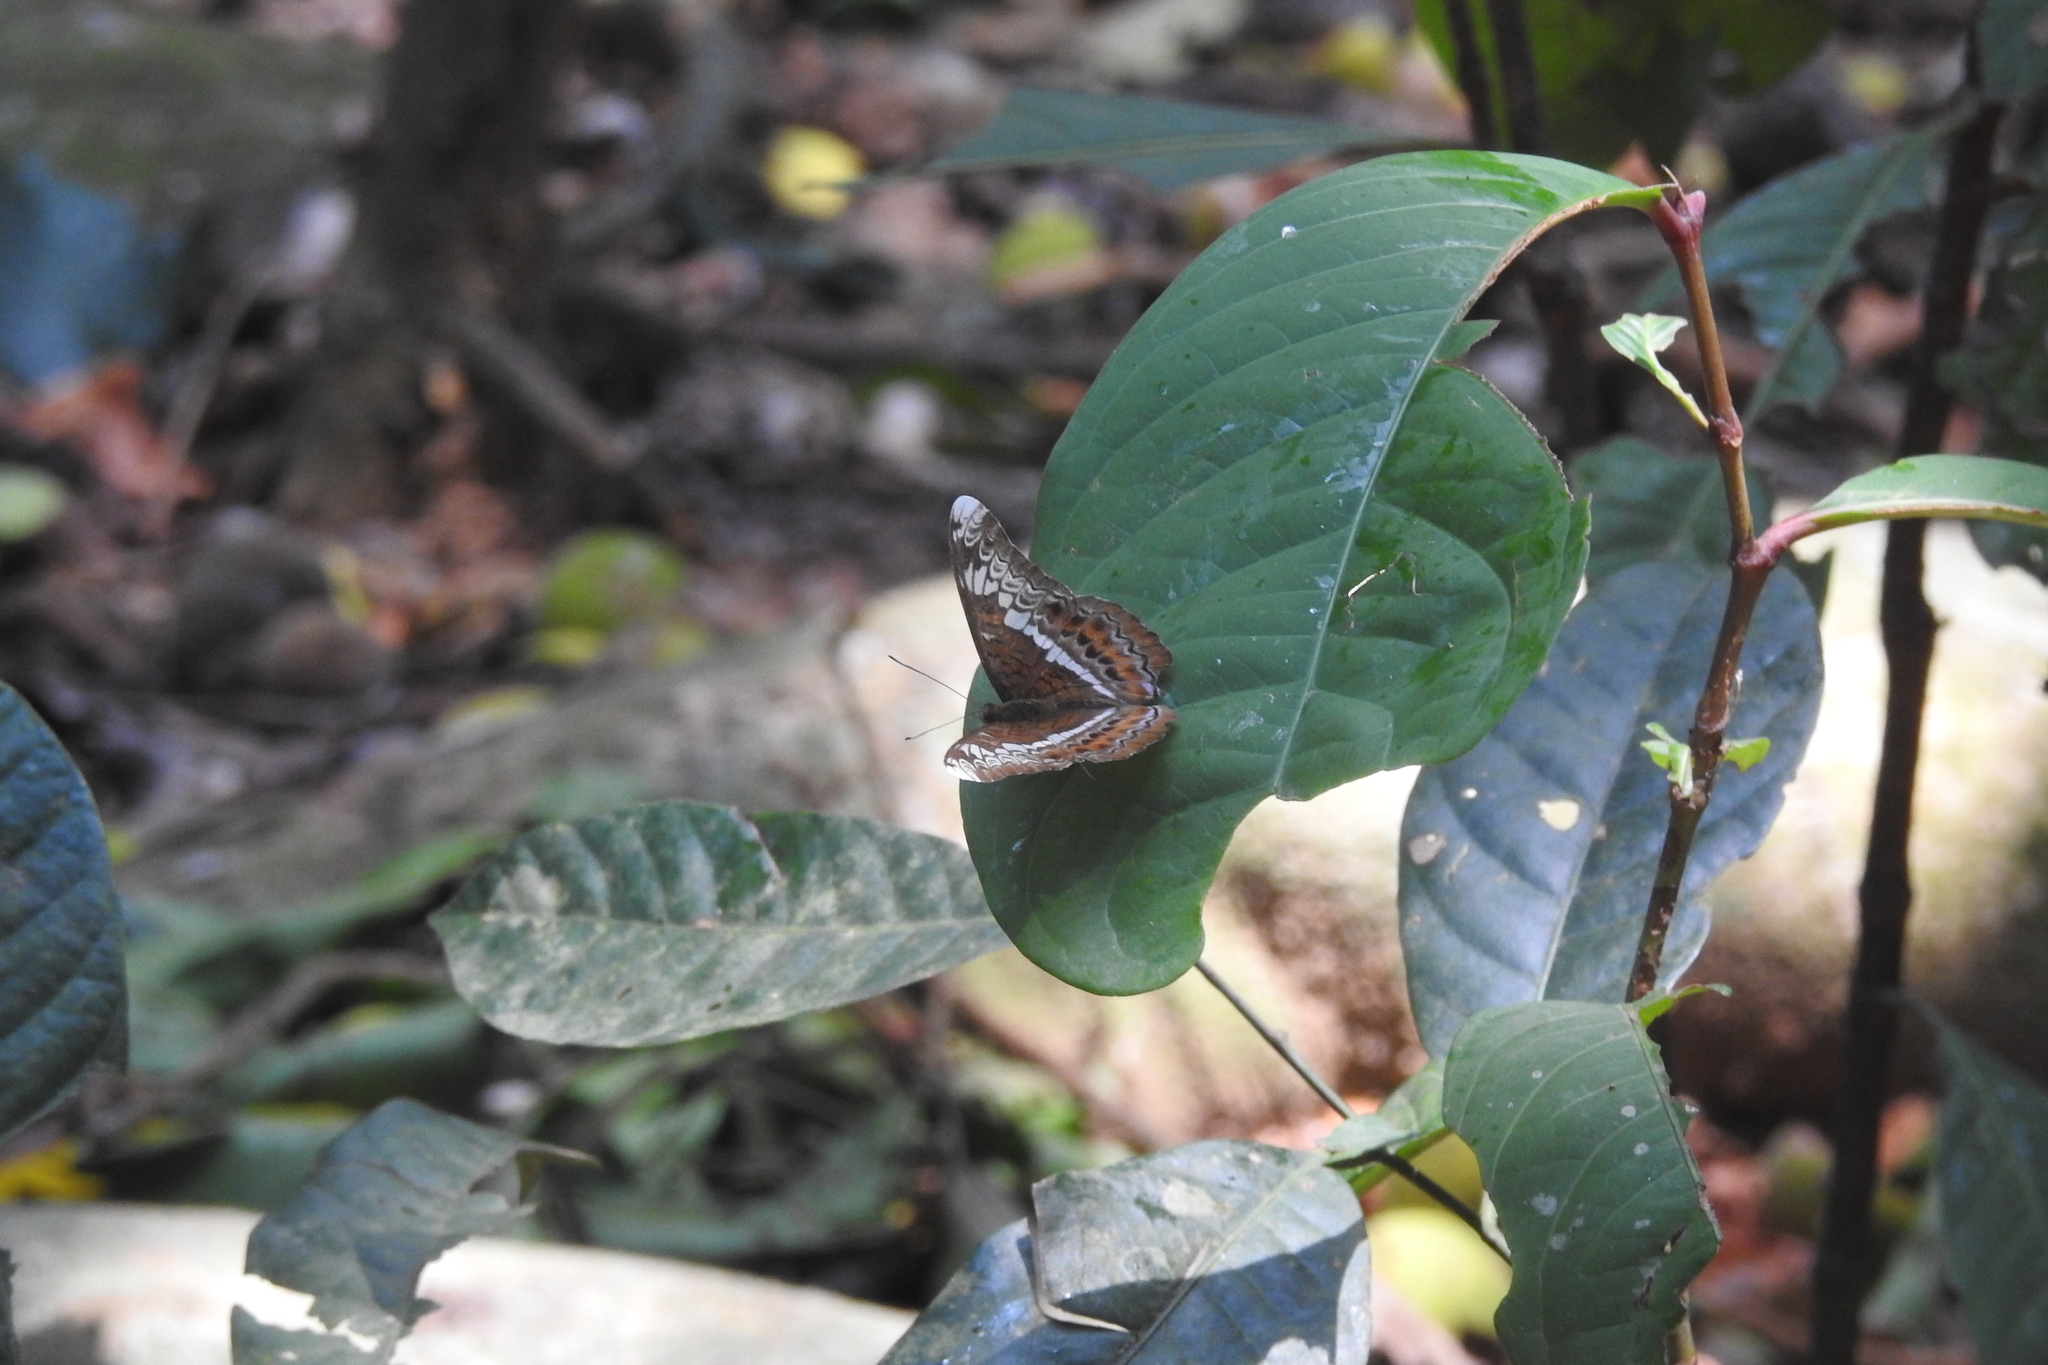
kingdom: Animalia
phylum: Arthropoda
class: Insecta
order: Lepidoptera
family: Nymphalidae
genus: Lebadea
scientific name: Lebadea martha
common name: Knight
